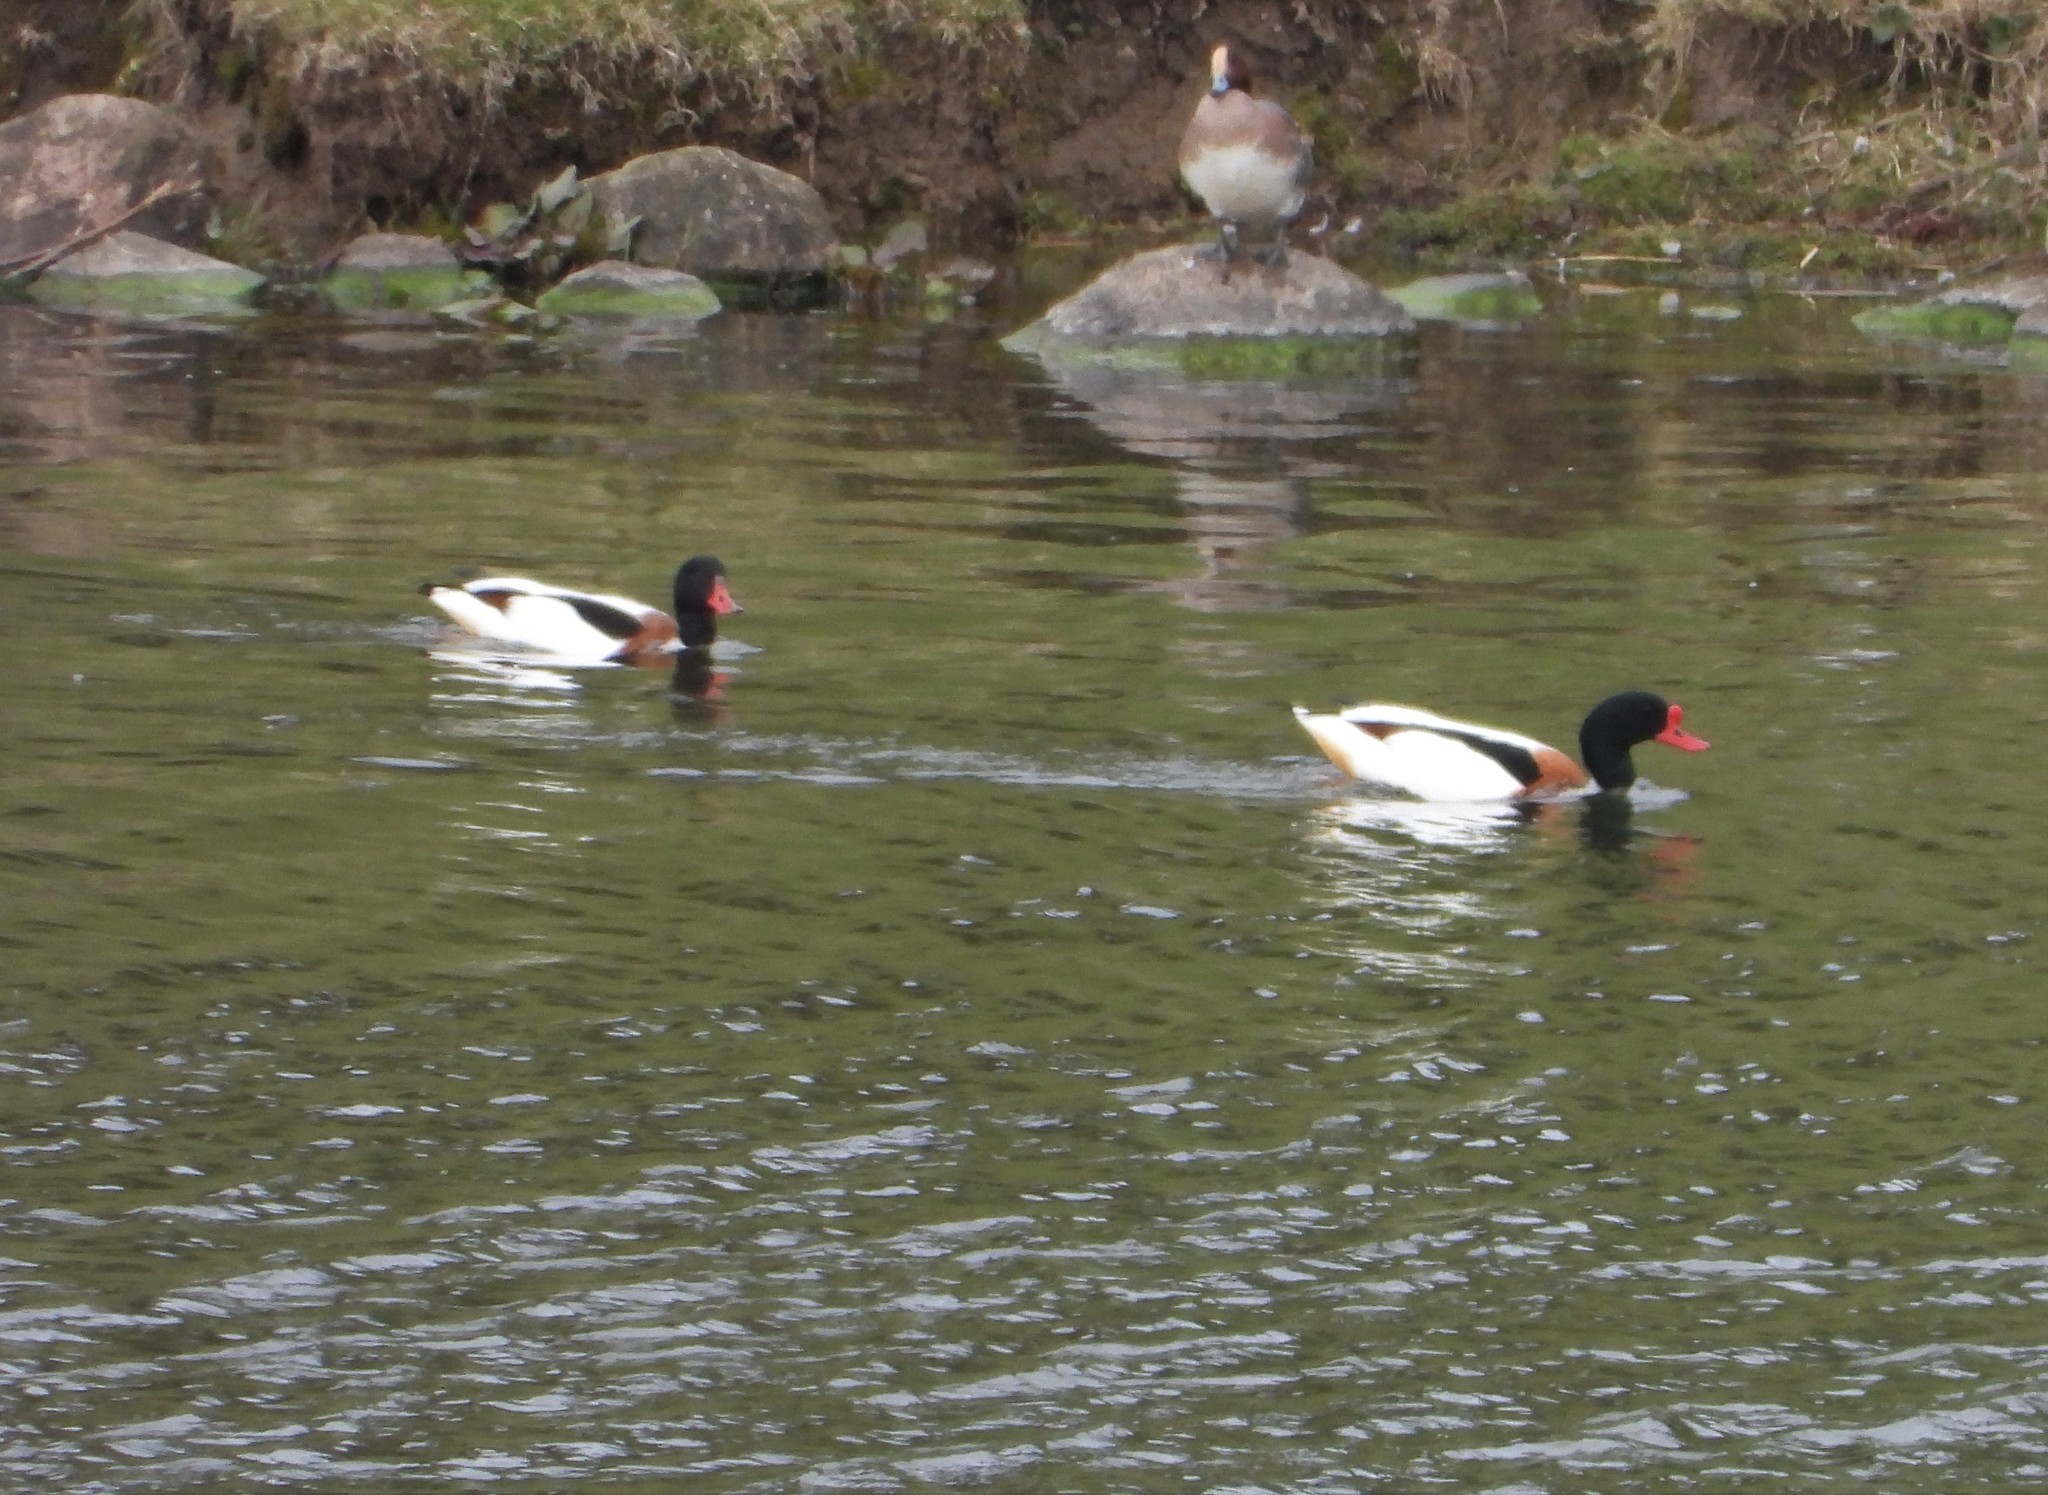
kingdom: Animalia
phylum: Chordata
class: Aves
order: Anseriformes
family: Anatidae
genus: Tadorna
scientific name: Tadorna tadorna
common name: Common shelduck
